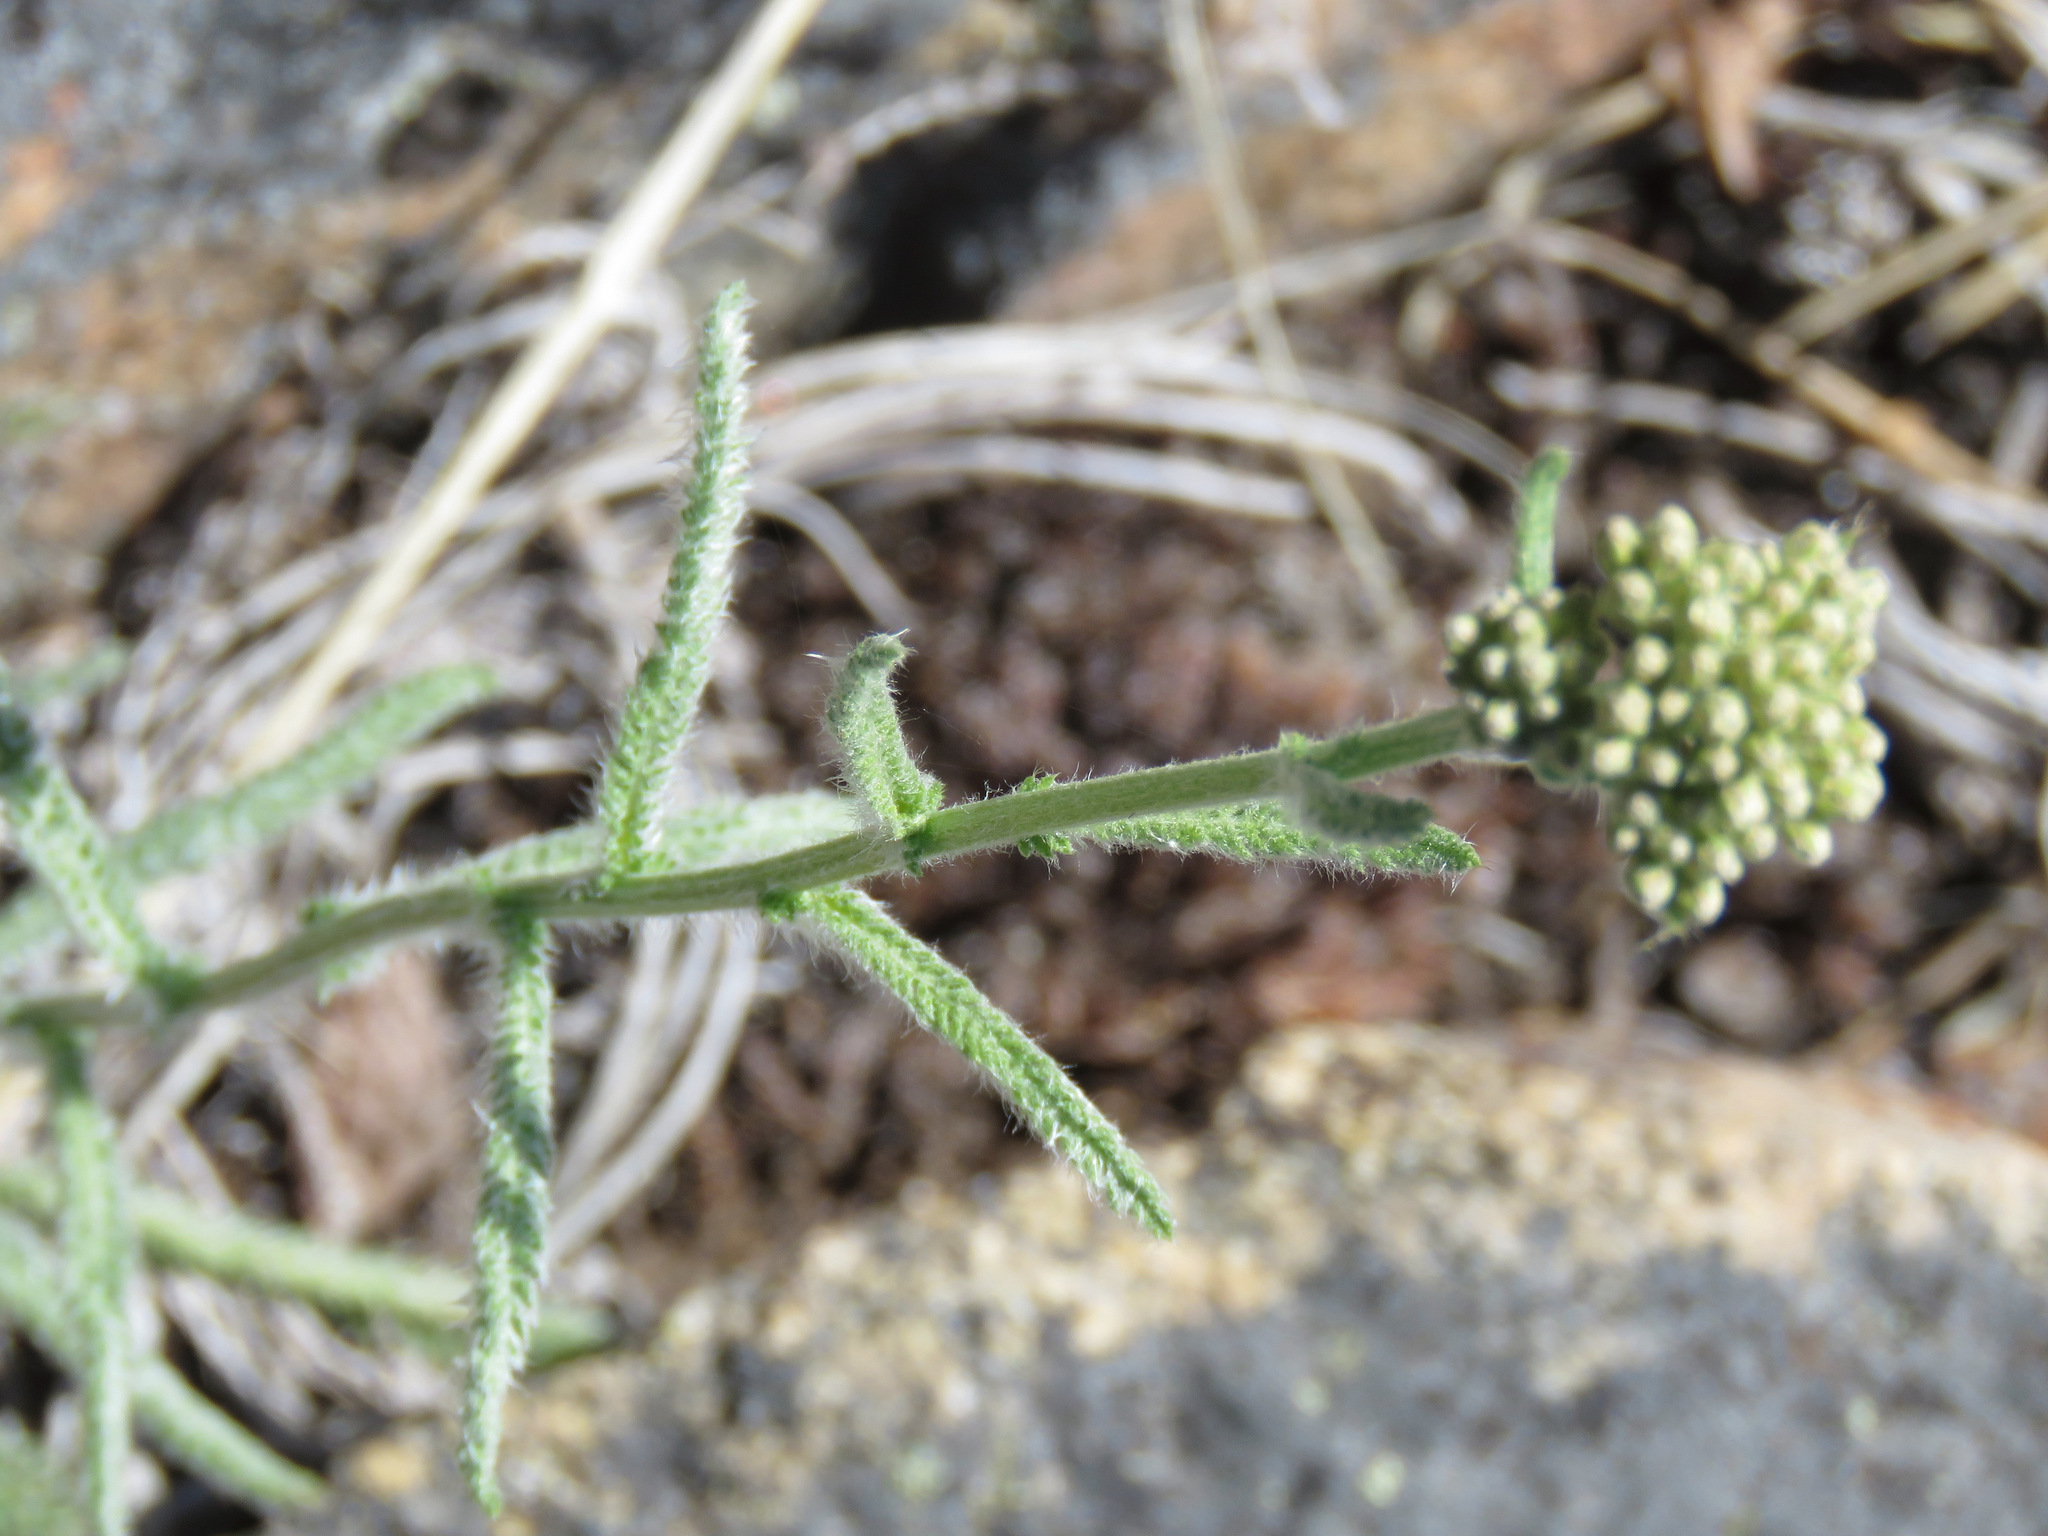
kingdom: Plantae
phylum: Tracheophyta
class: Magnoliopsida
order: Asterales
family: Asteraceae
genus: Achillea
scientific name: Achillea millefolium
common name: Yarrow
